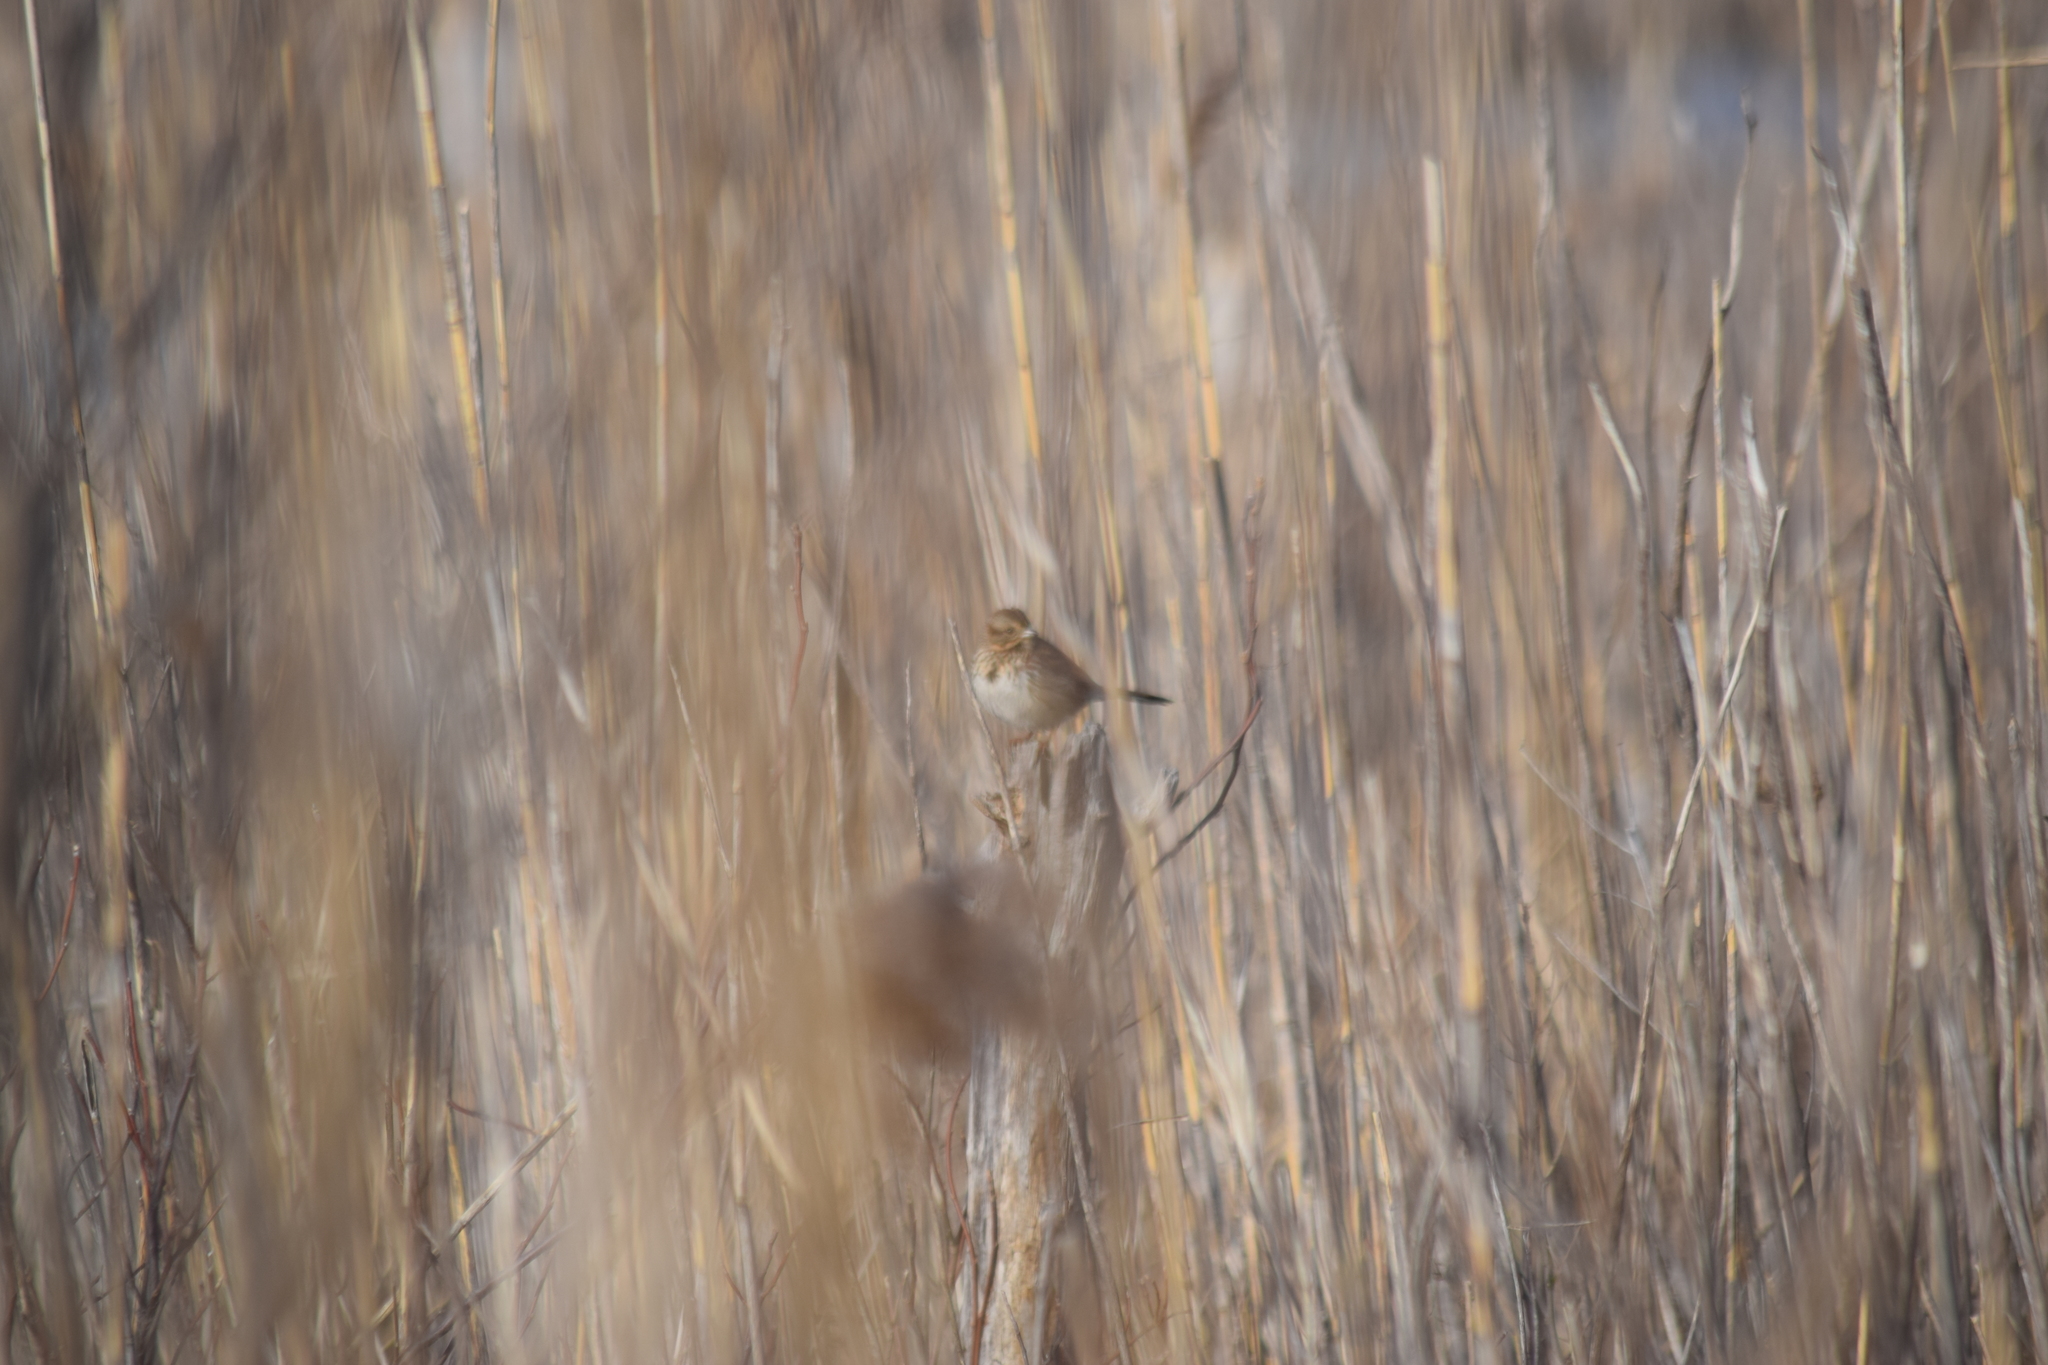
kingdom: Animalia
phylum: Chordata
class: Aves
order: Passeriformes
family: Passerellidae
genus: Melospiza
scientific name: Melospiza lincolnii
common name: Lincoln's sparrow
